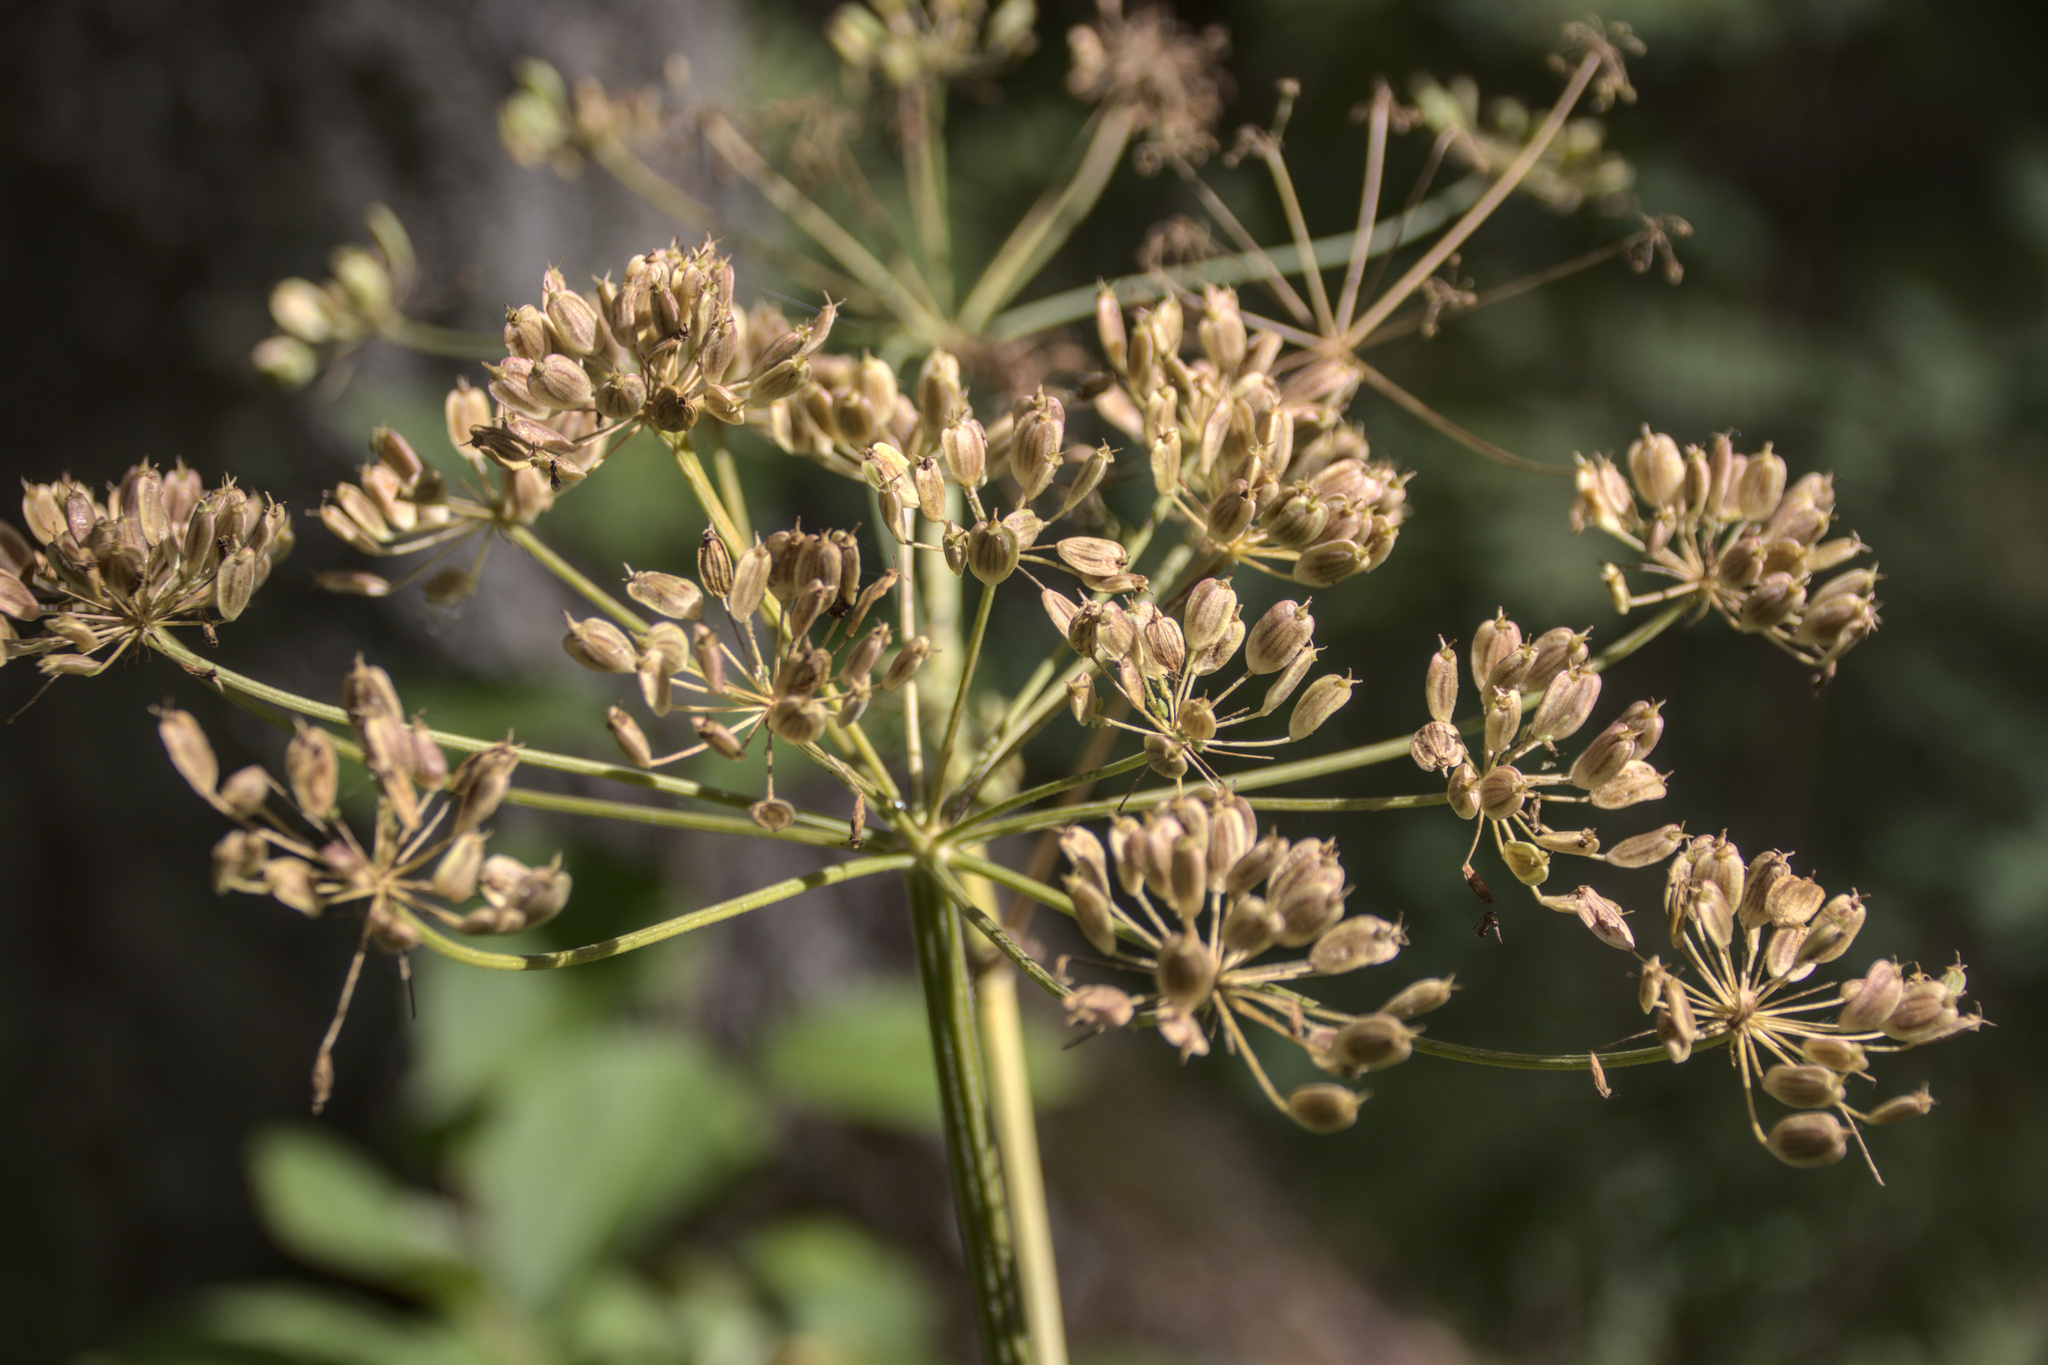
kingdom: Plantae
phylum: Tracheophyta
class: Magnoliopsida
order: Apiales
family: Apiaceae
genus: Heracleum
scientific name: Heracleum sphondylium
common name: Hogweed
